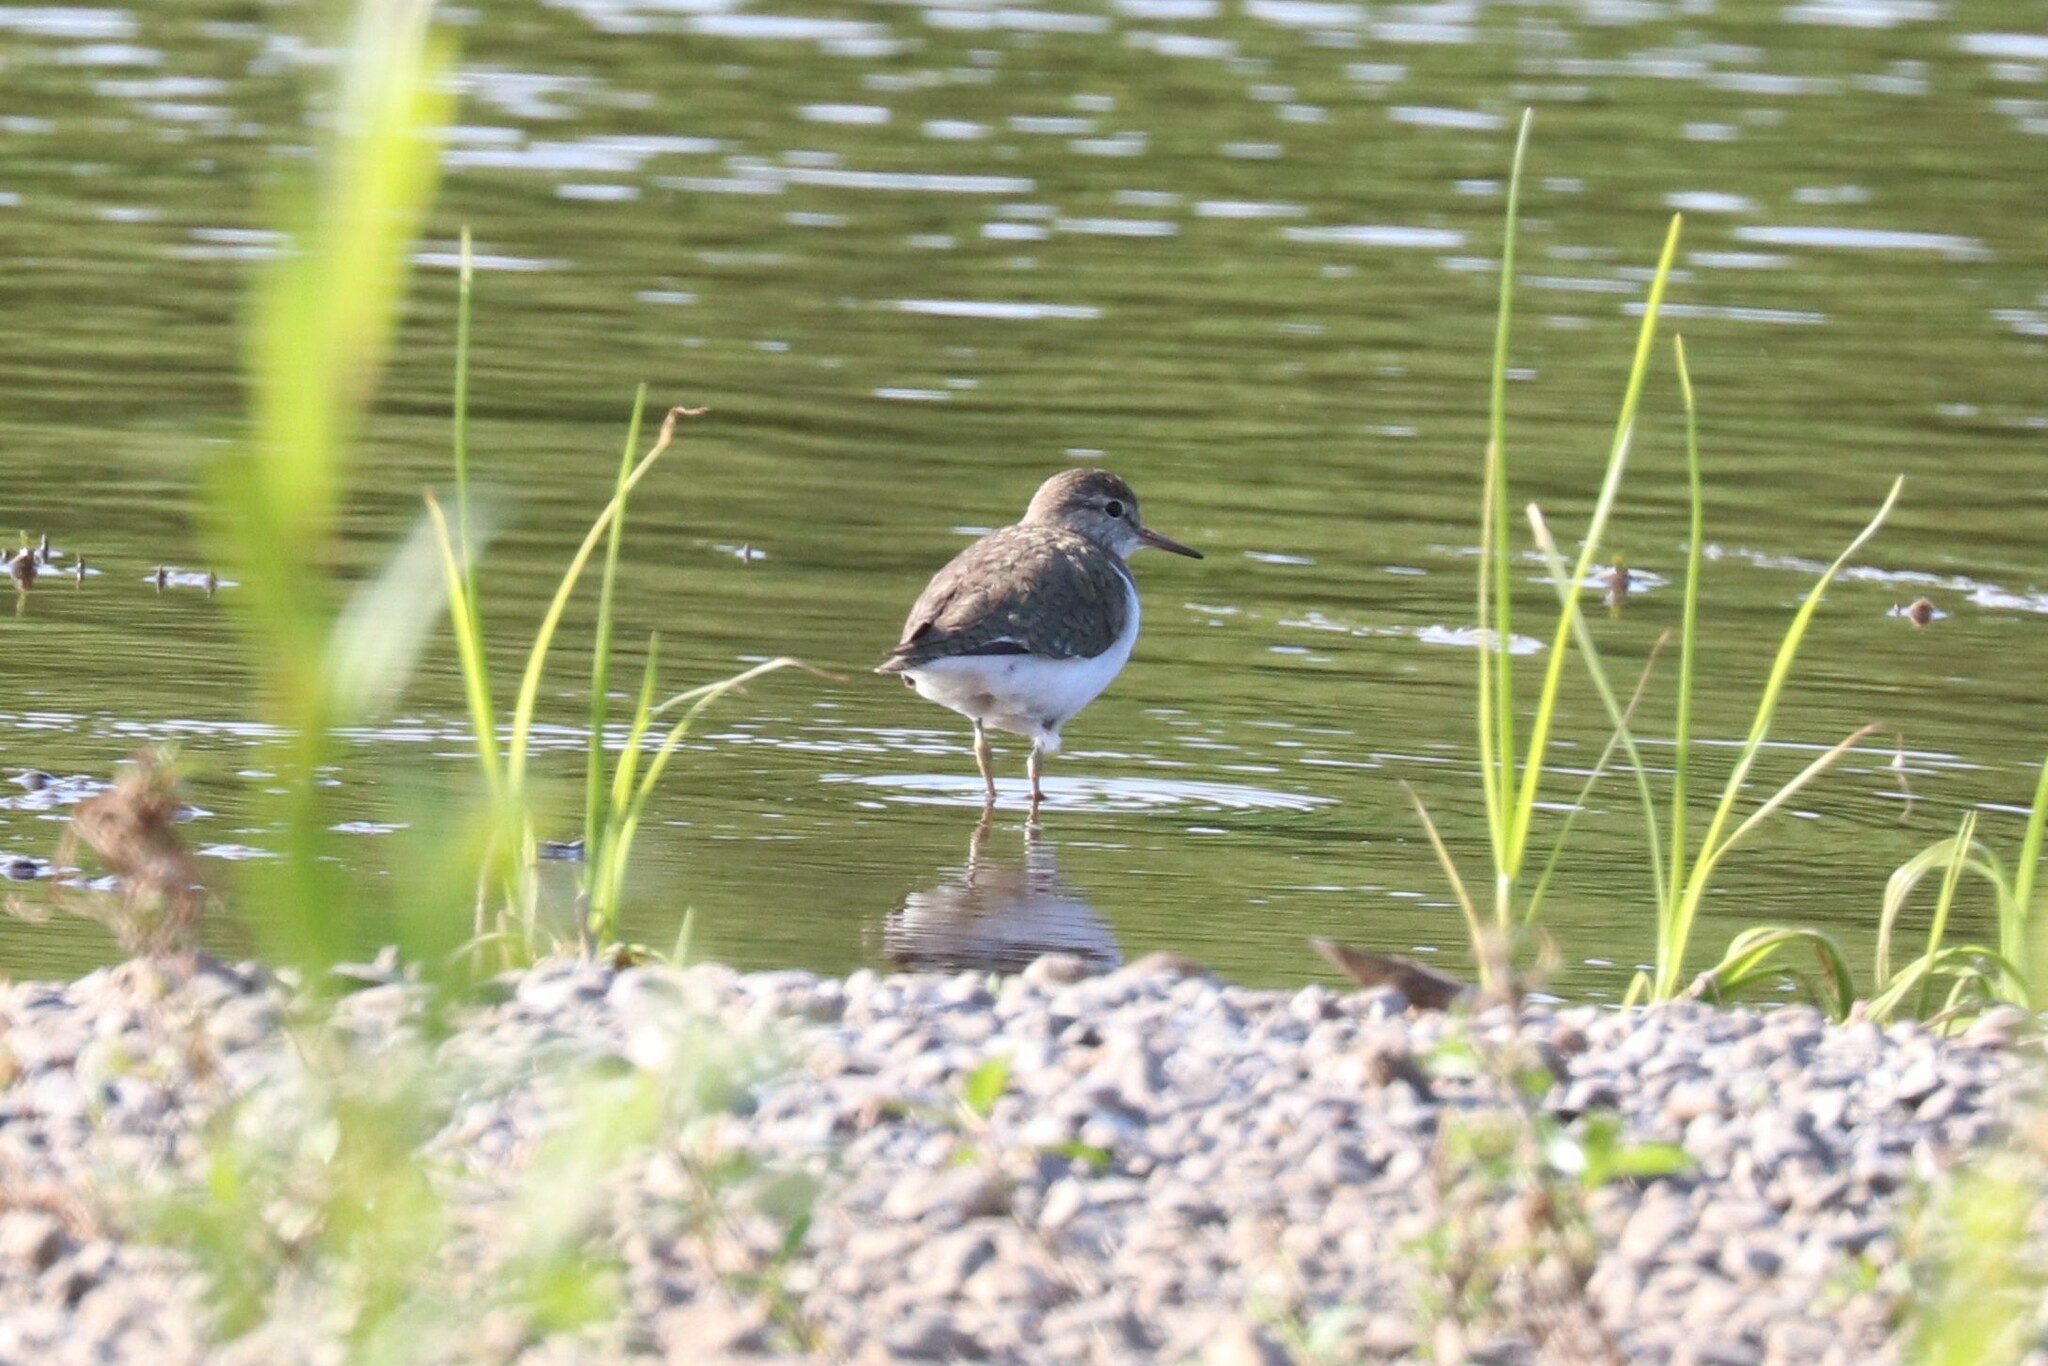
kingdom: Animalia
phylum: Chordata
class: Aves
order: Charadriiformes
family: Scolopacidae
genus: Actitis
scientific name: Actitis hypoleucos
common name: Common sandpiper
